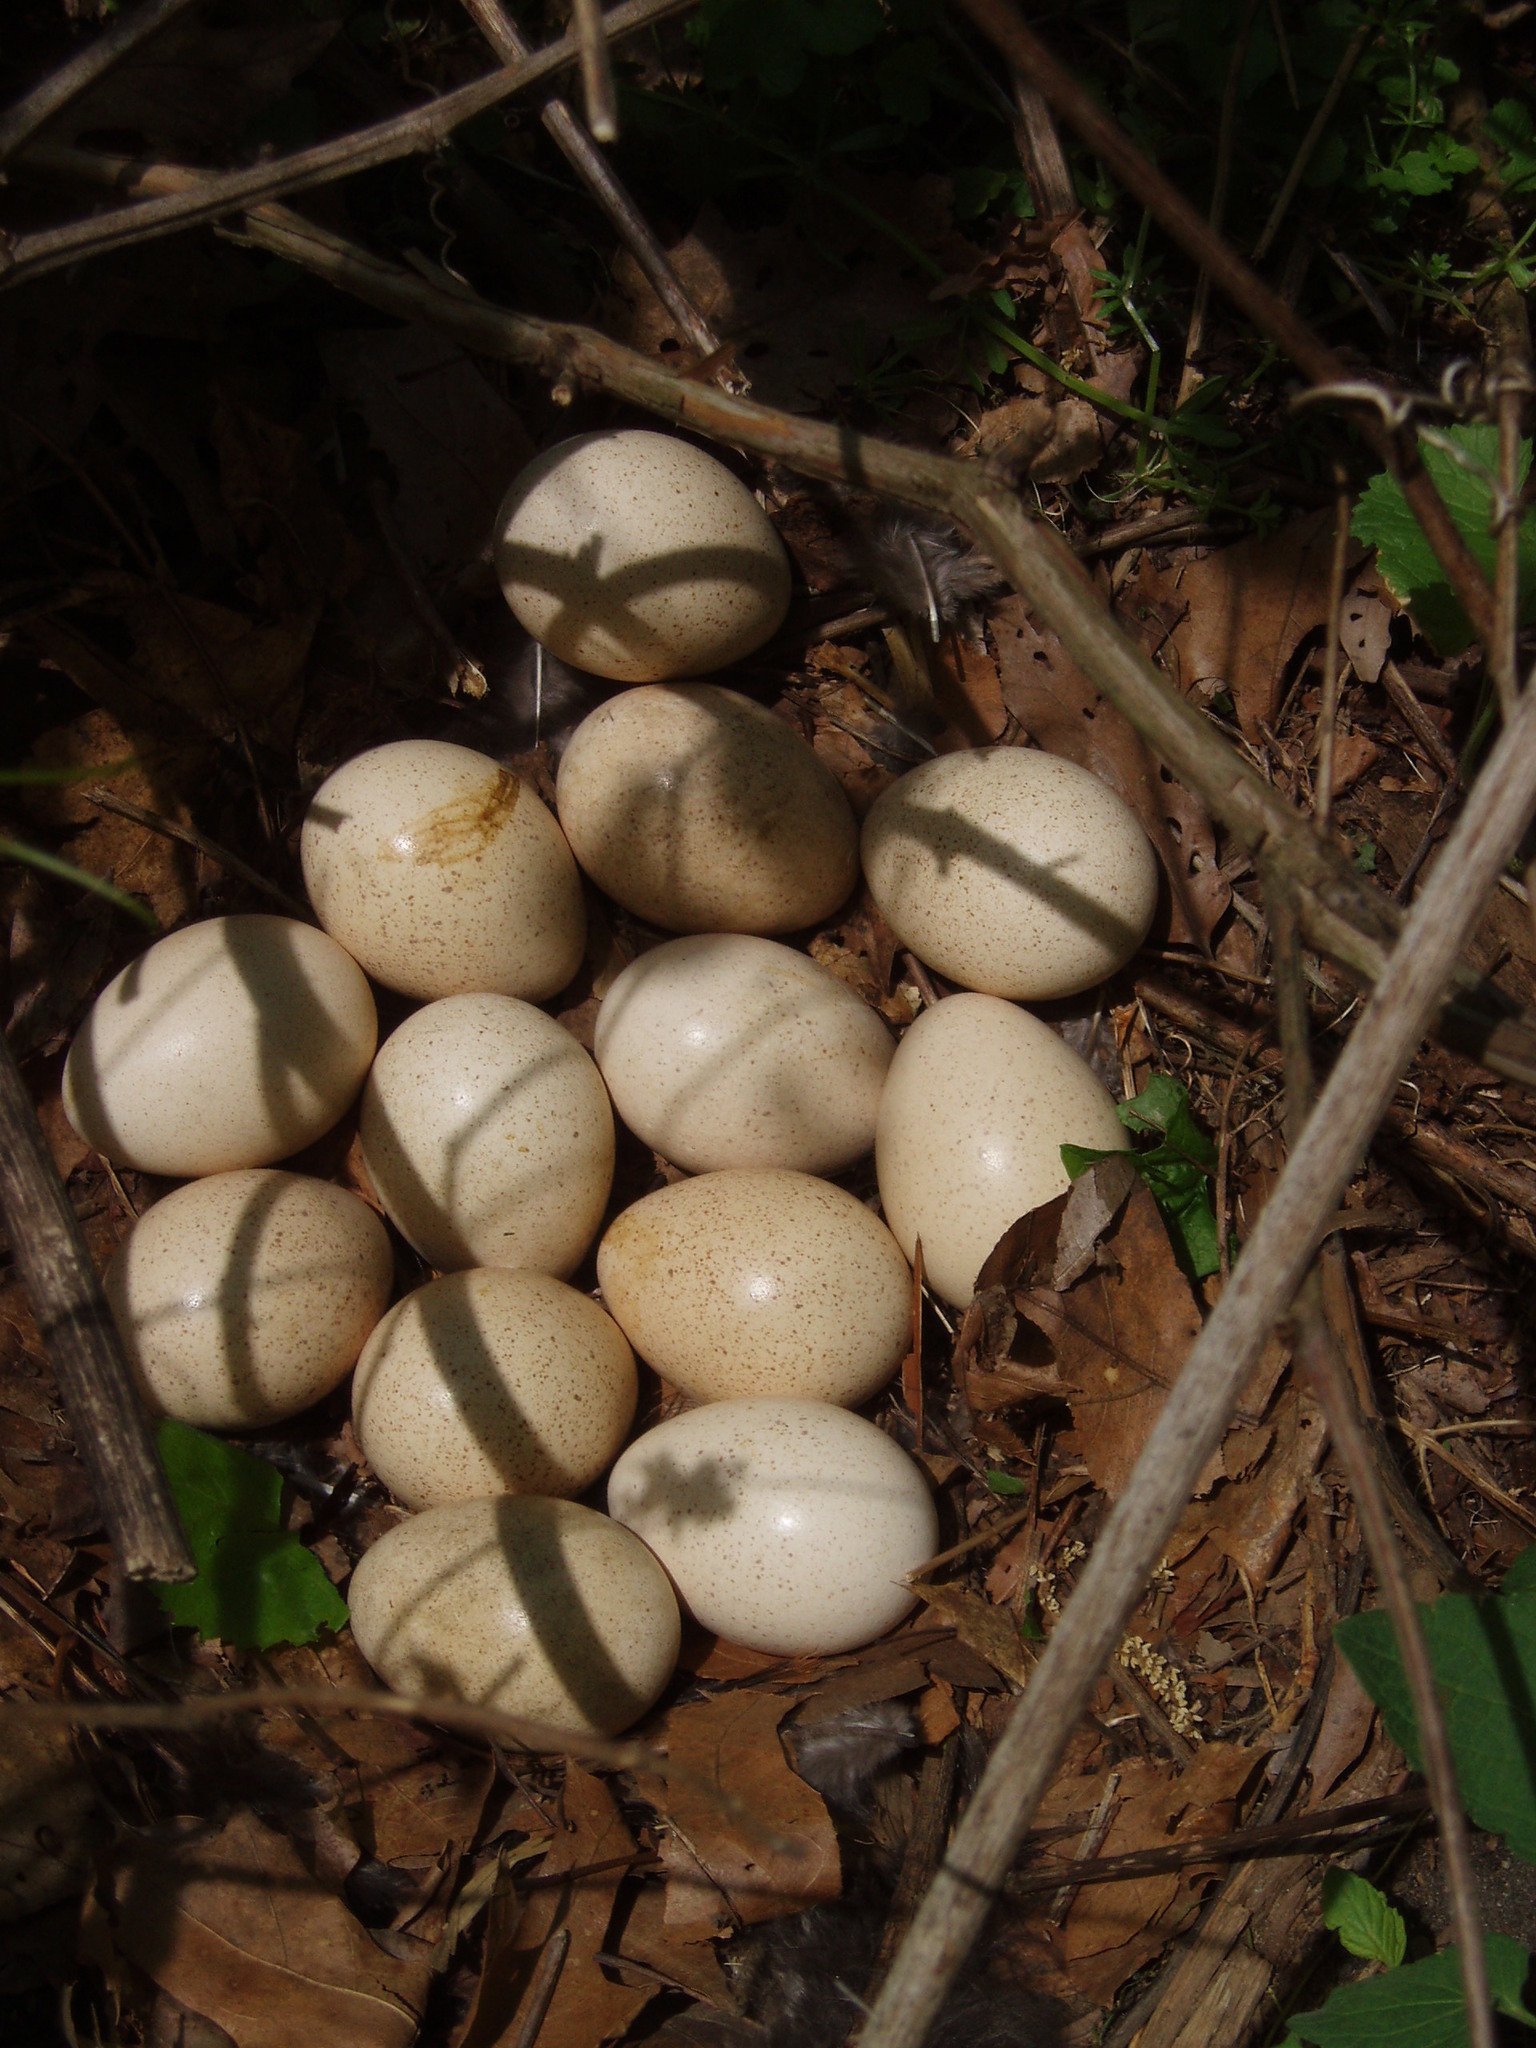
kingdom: Animalia
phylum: Chordata
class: Aves
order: Galliformes
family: Phasianidae
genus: Meleagris
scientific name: Meleagris gallopavo
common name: Wild turkey
